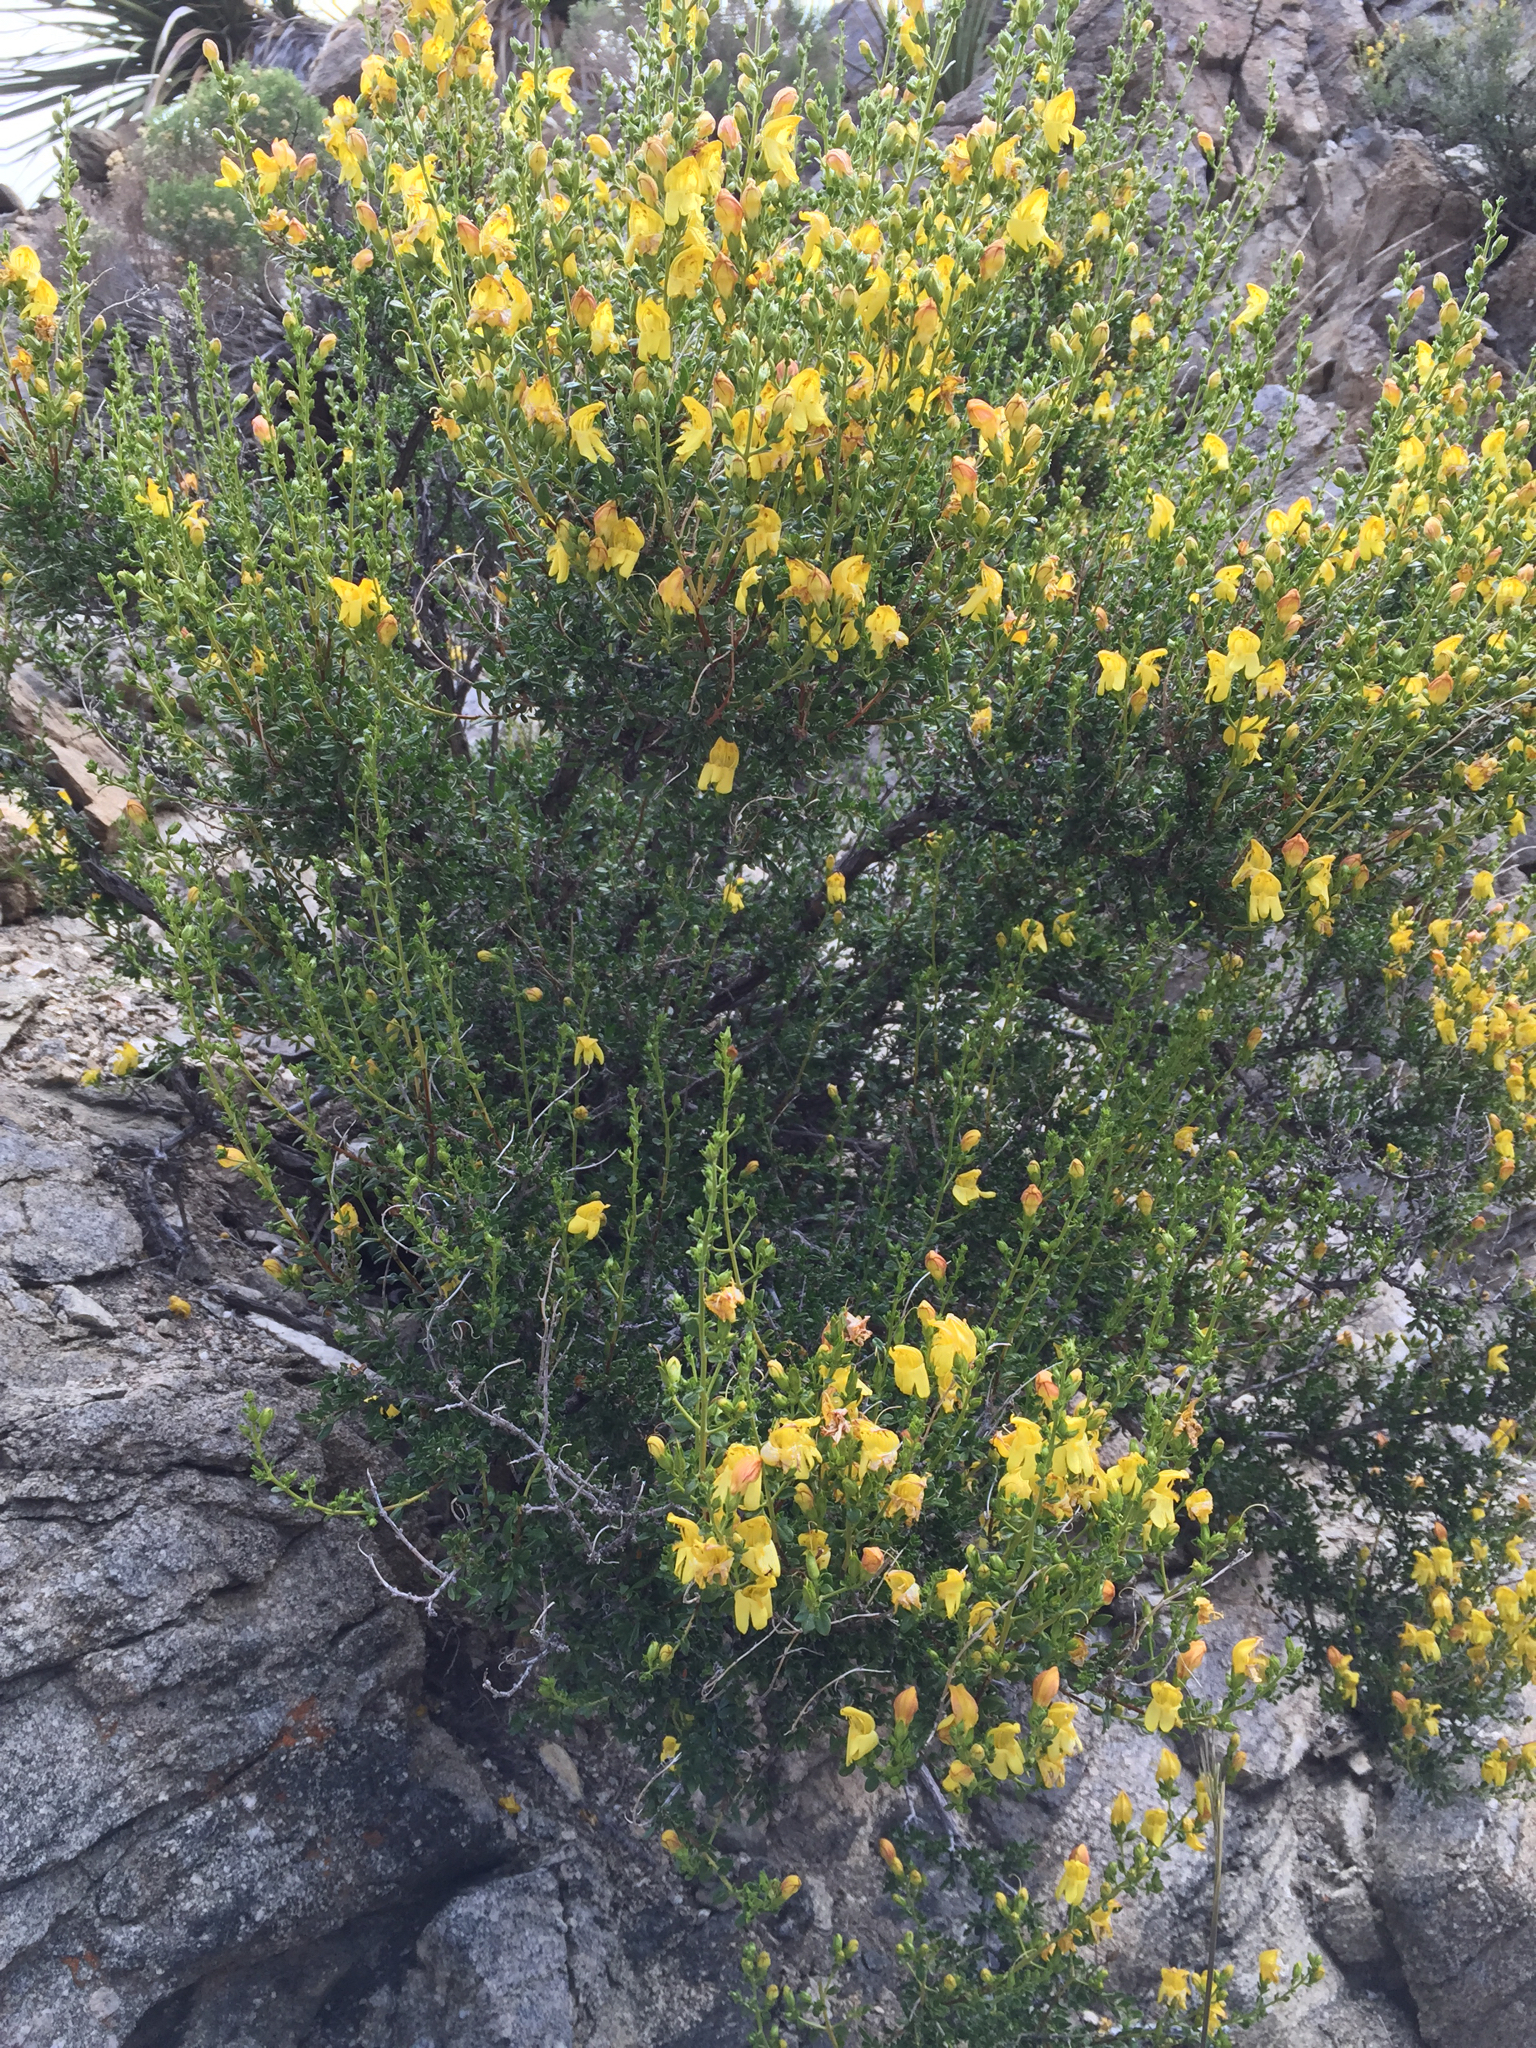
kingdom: Plantae
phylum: Tracheophyta
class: Magnoliopsida
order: Lamiales
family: Plantaginaceae
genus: Keckiella
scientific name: Keckiella antirrhinoides
